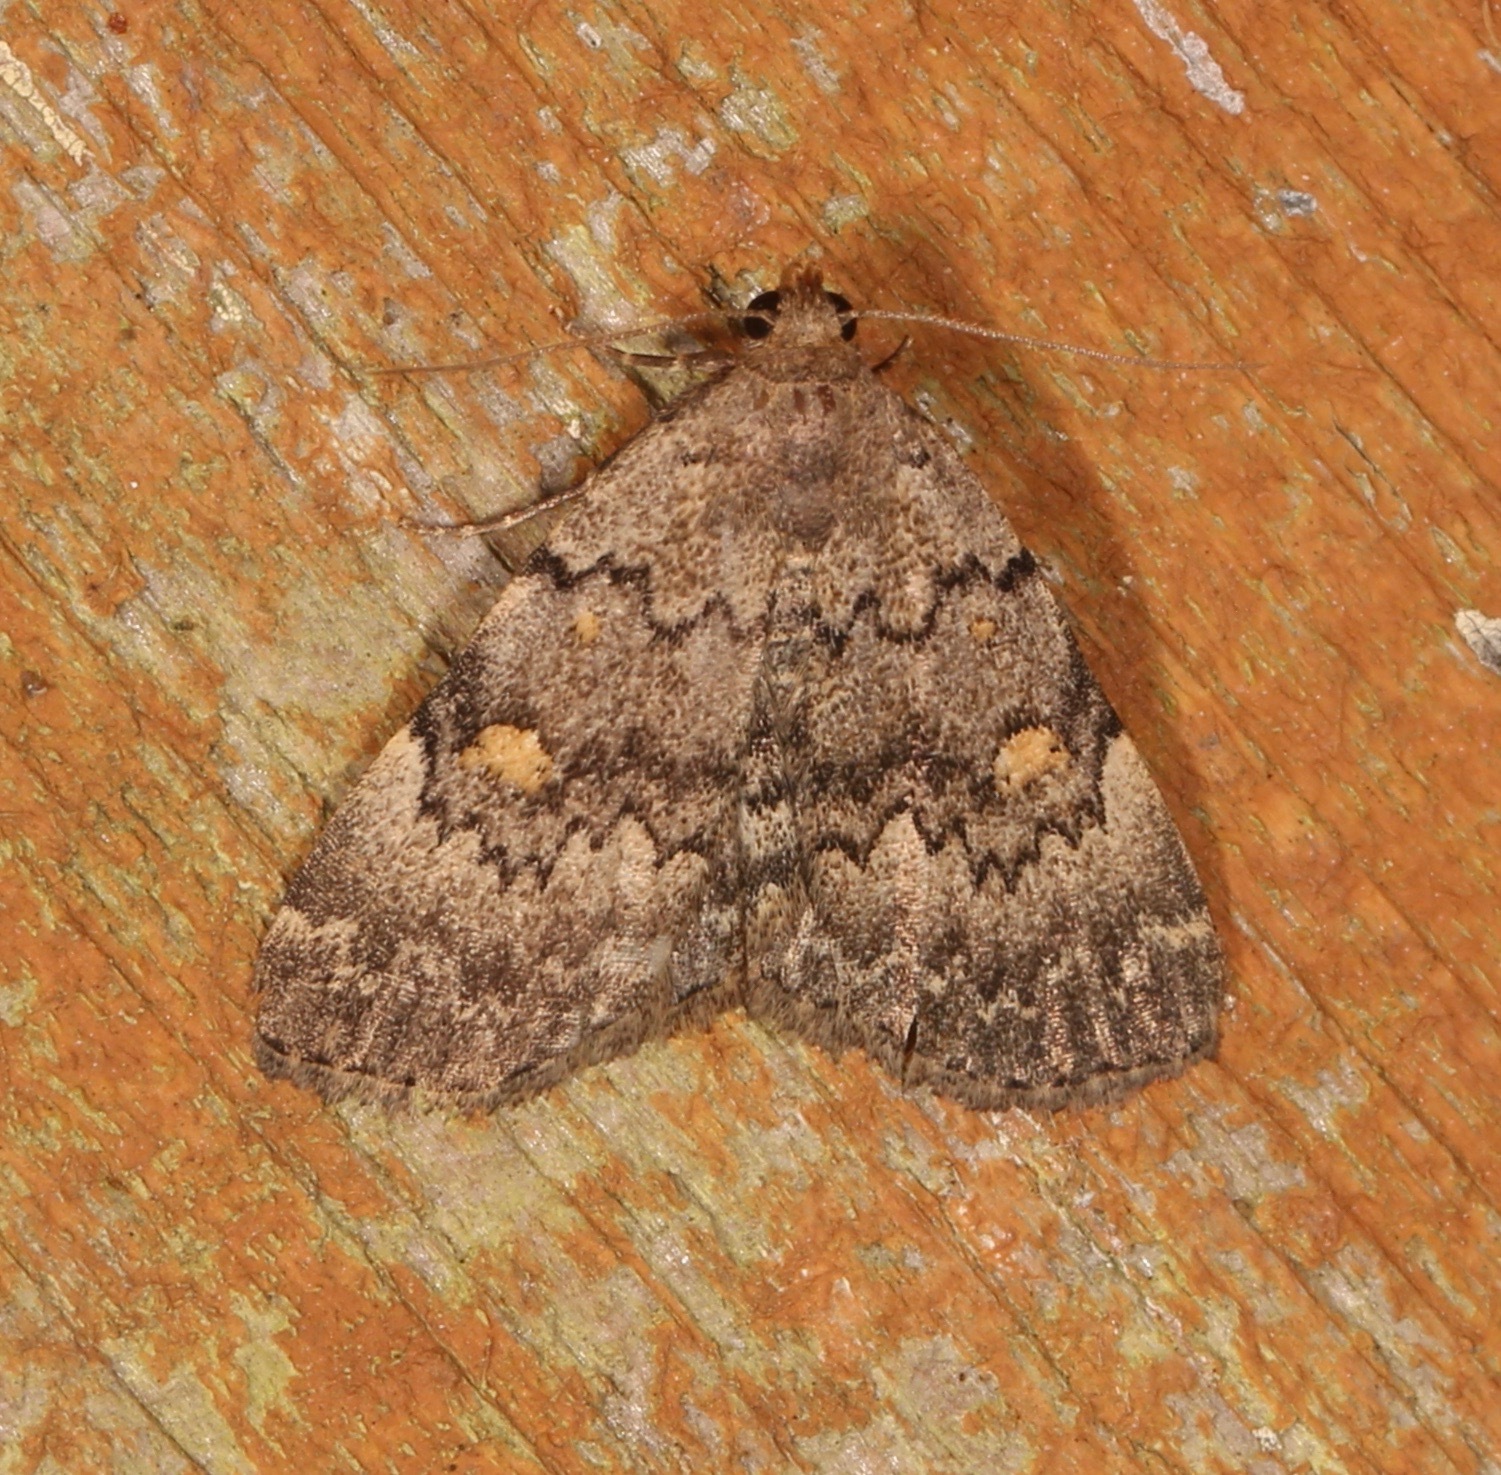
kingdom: Animalia
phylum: Arthropoda
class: Insecta
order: Lepidoptera
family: Erebidae
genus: Idia
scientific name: Idia aemula
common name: Common idia moth
